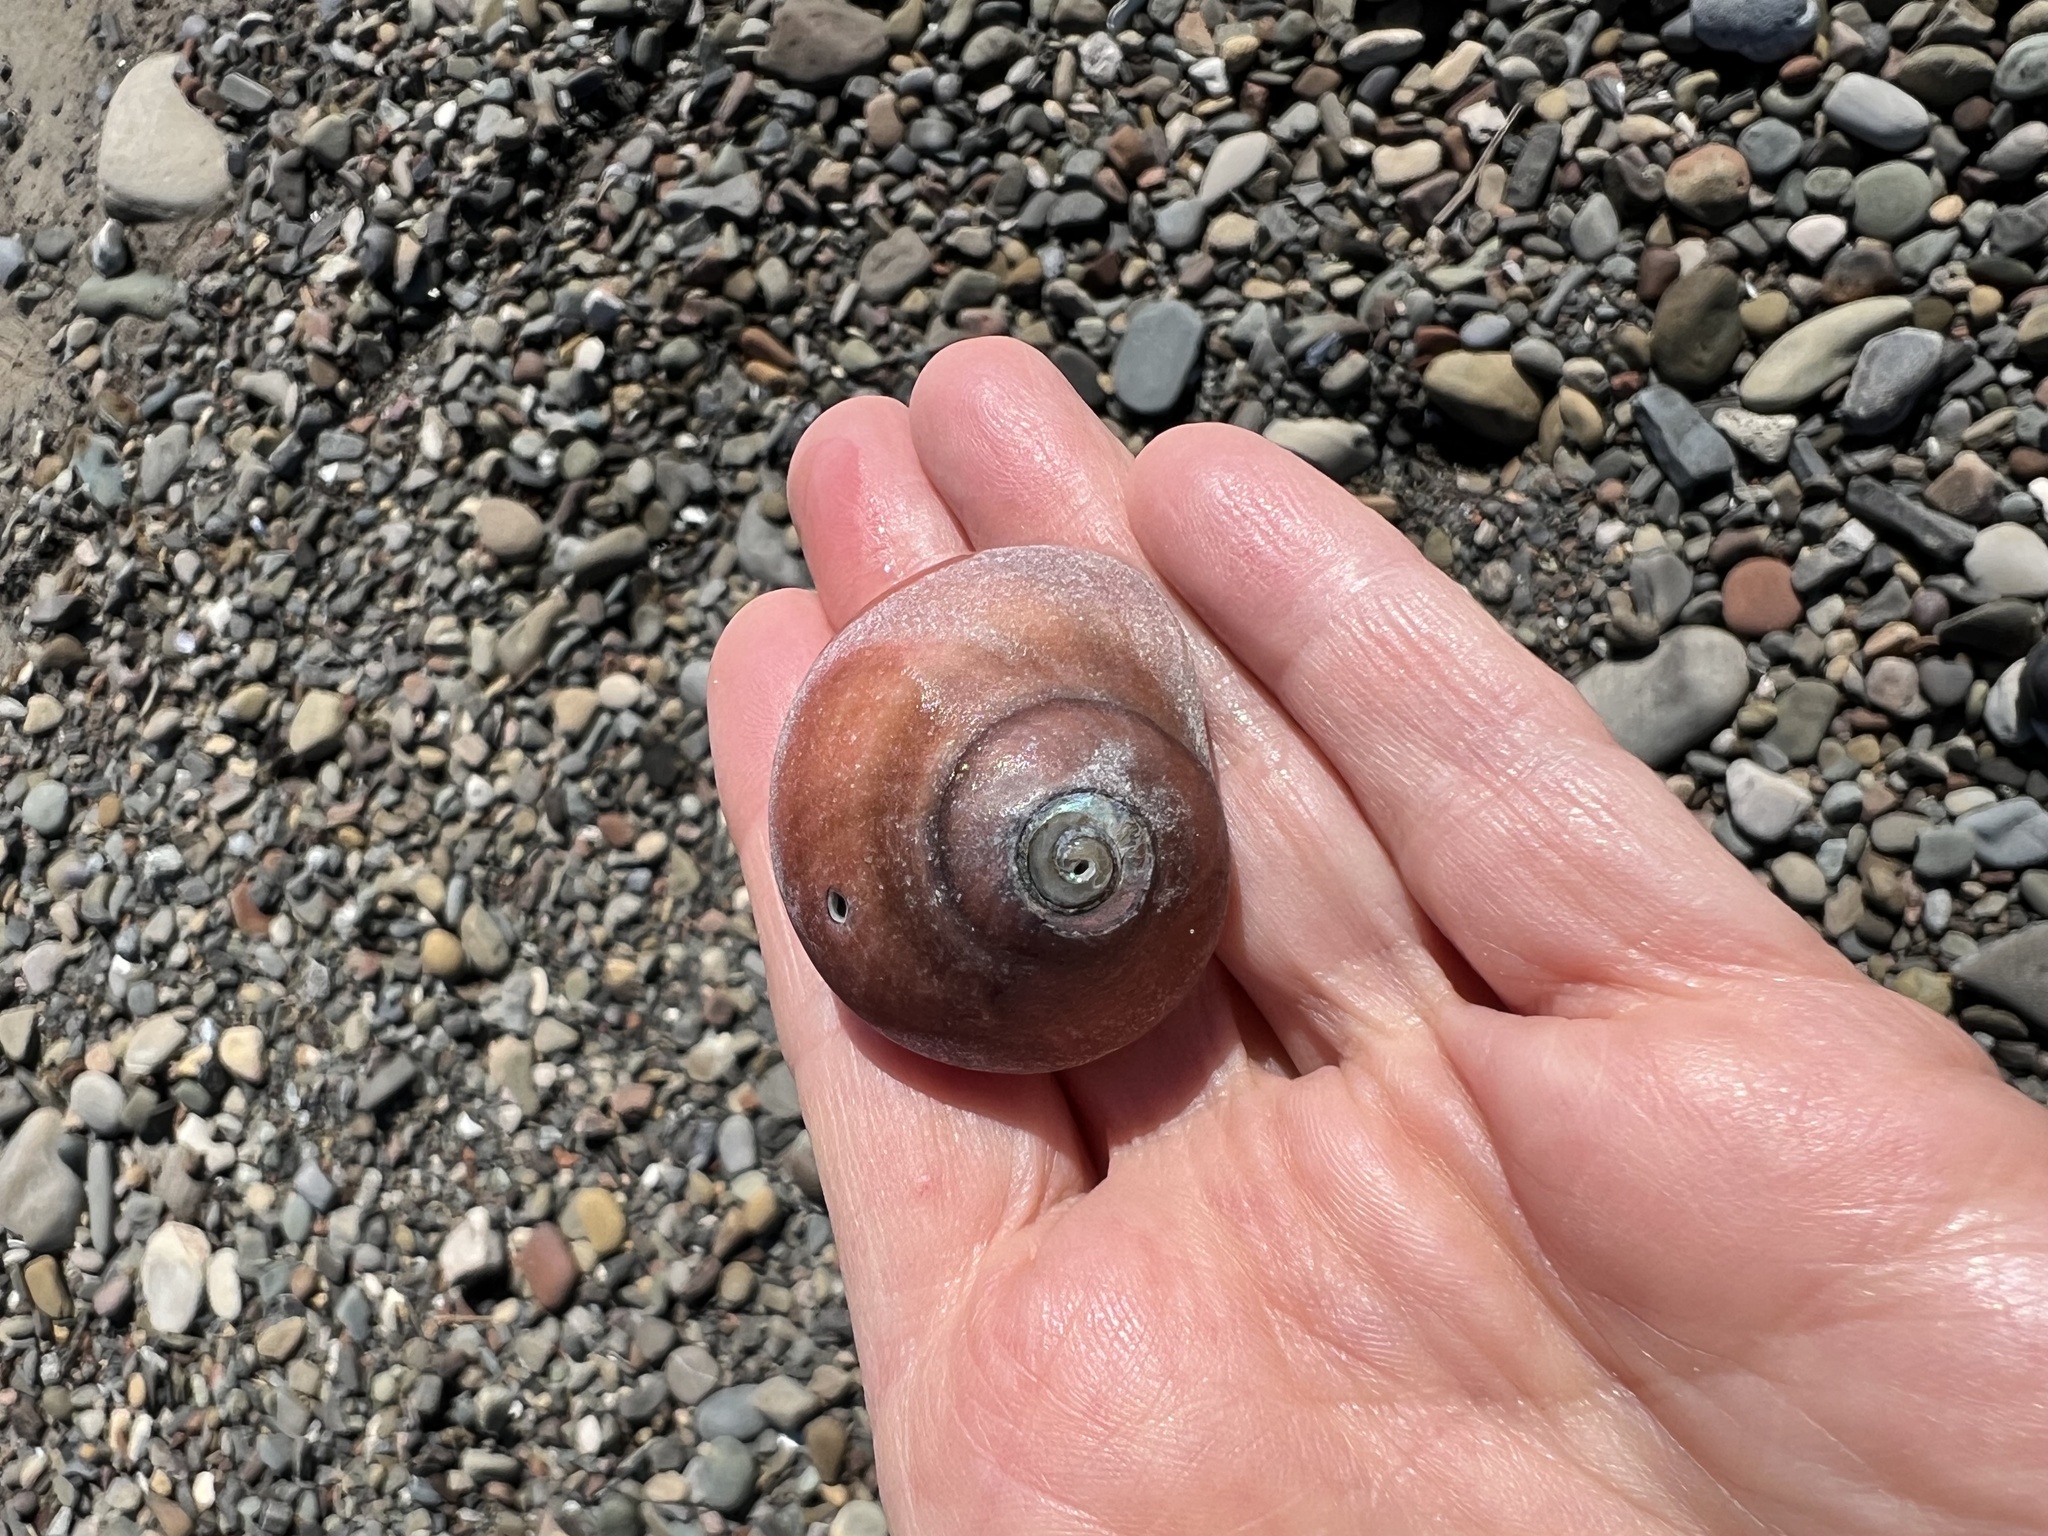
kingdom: Animalia
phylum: Mollusca
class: Gastropoda
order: Trochida
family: Tegulidae
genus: Norrisia
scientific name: Norrisia norrisii
